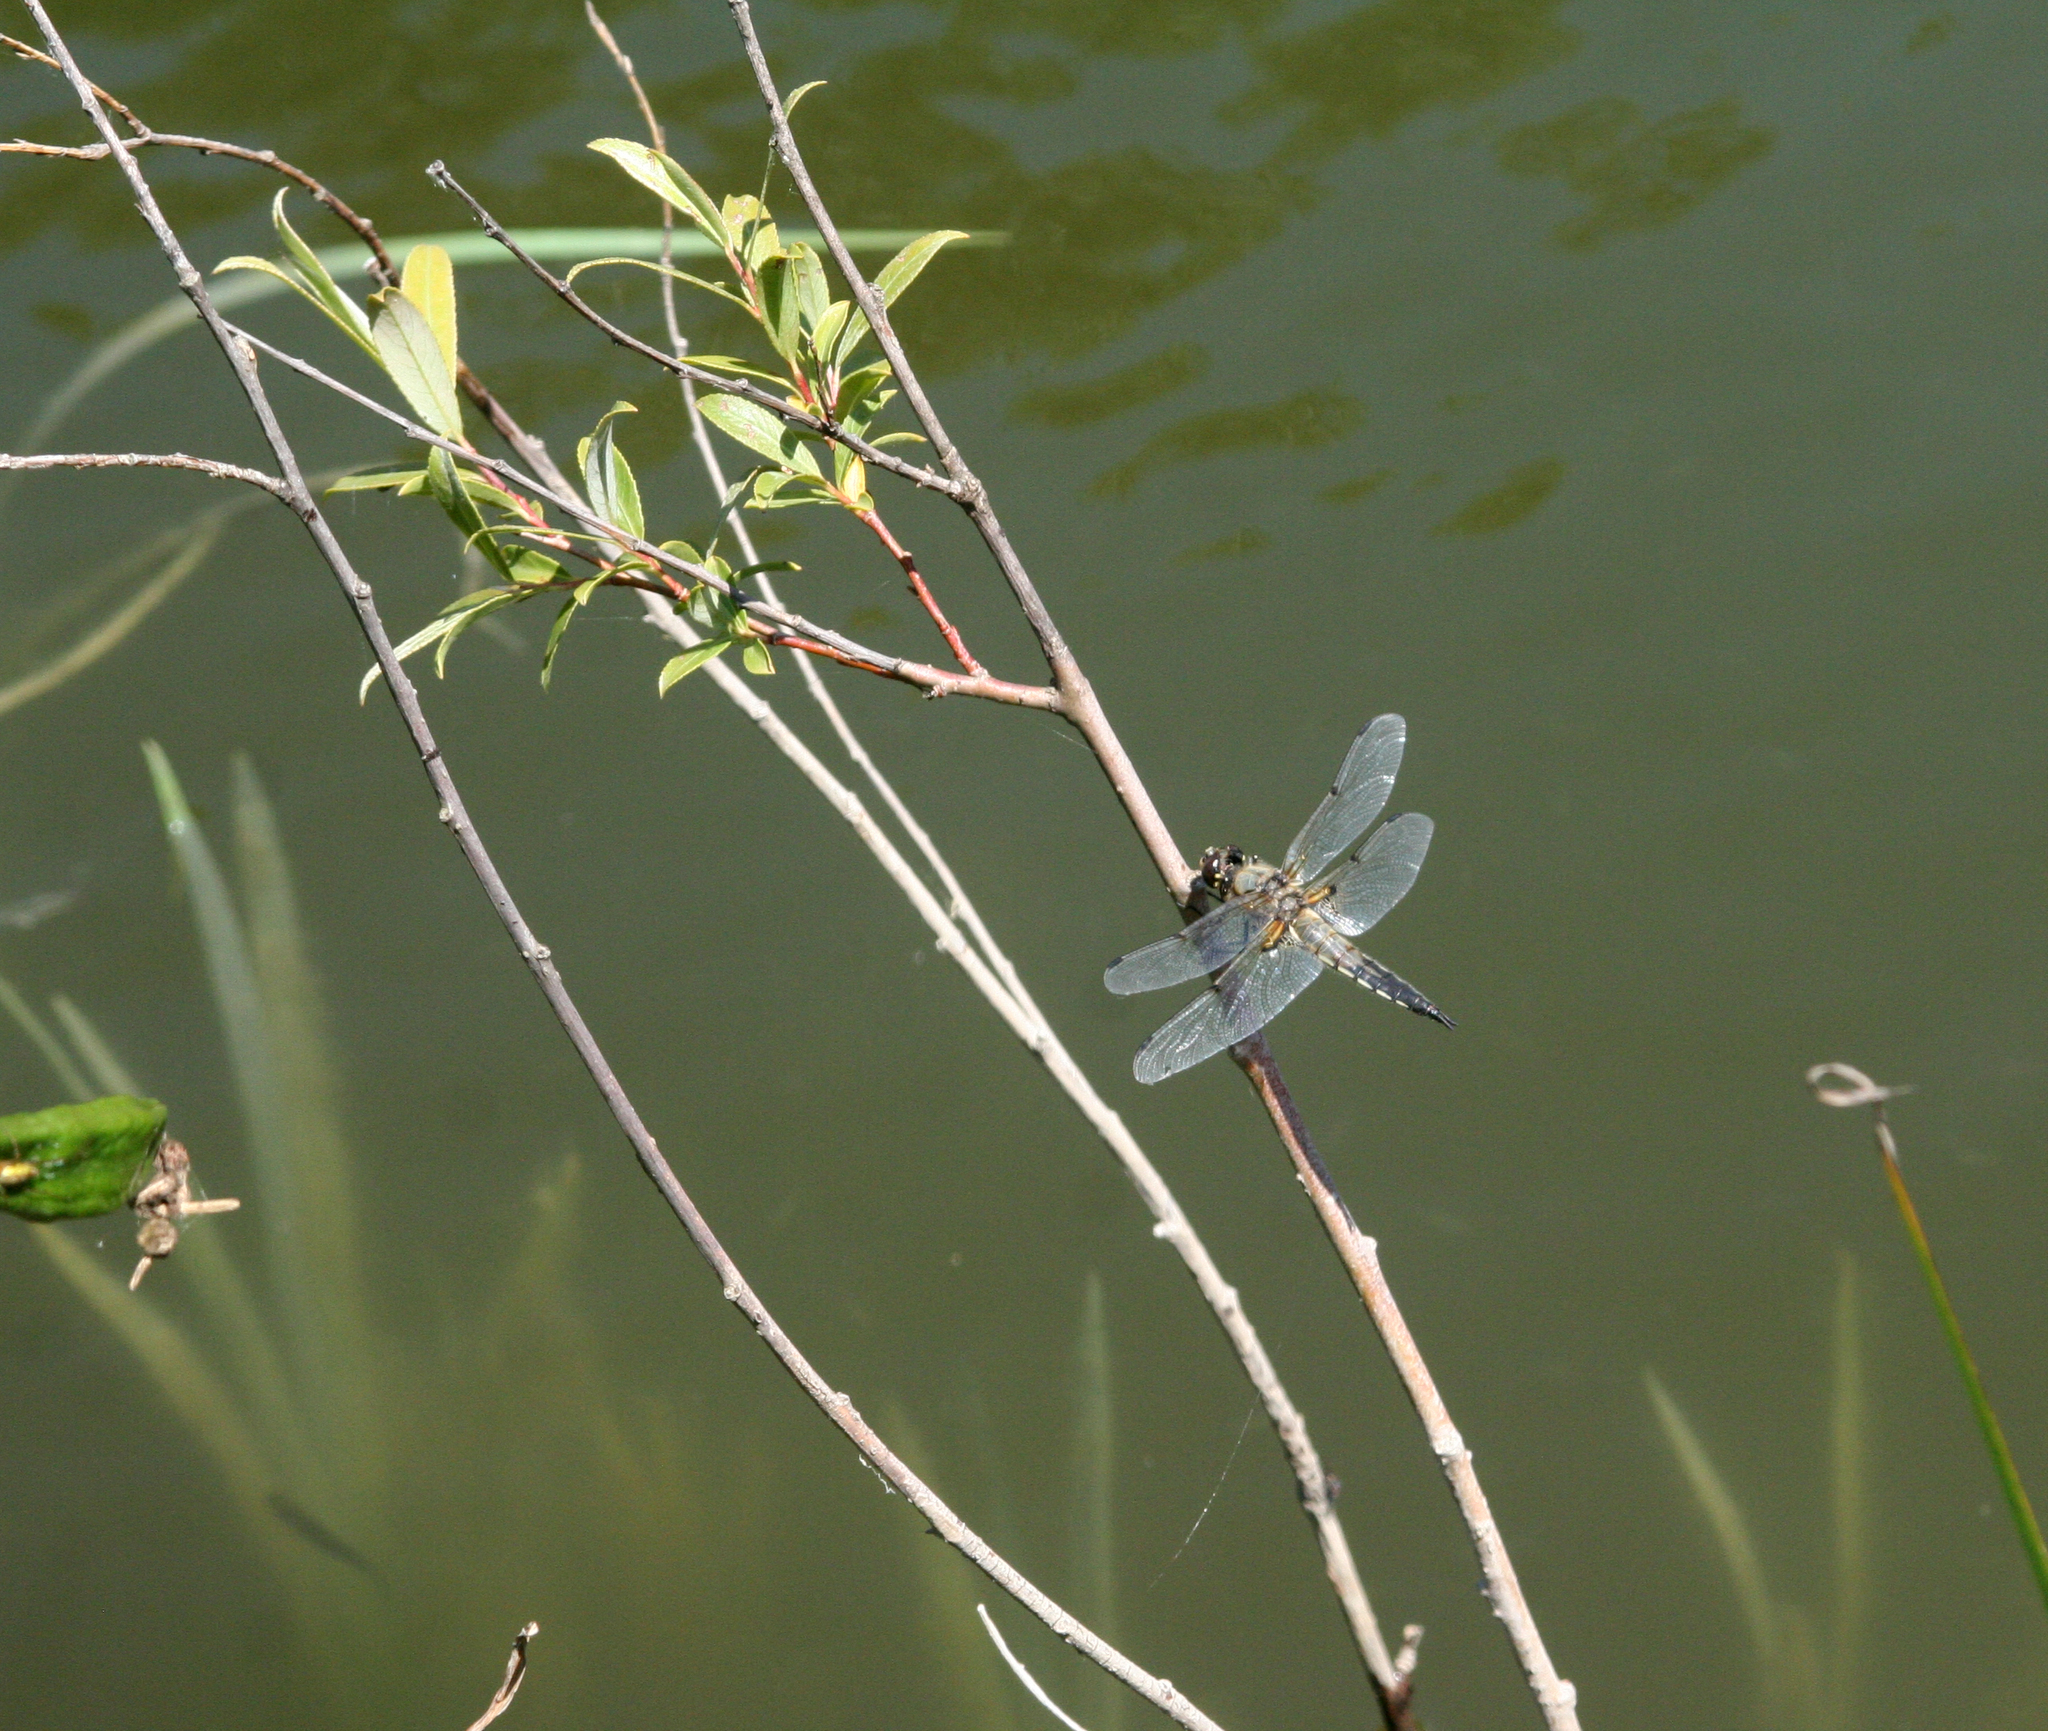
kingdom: Animalia
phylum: Arthropoda
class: Insecta
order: Odonata
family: Libellulidae
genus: Libellula
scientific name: Libellula quadrimaculata
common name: Four-spotted chaser
